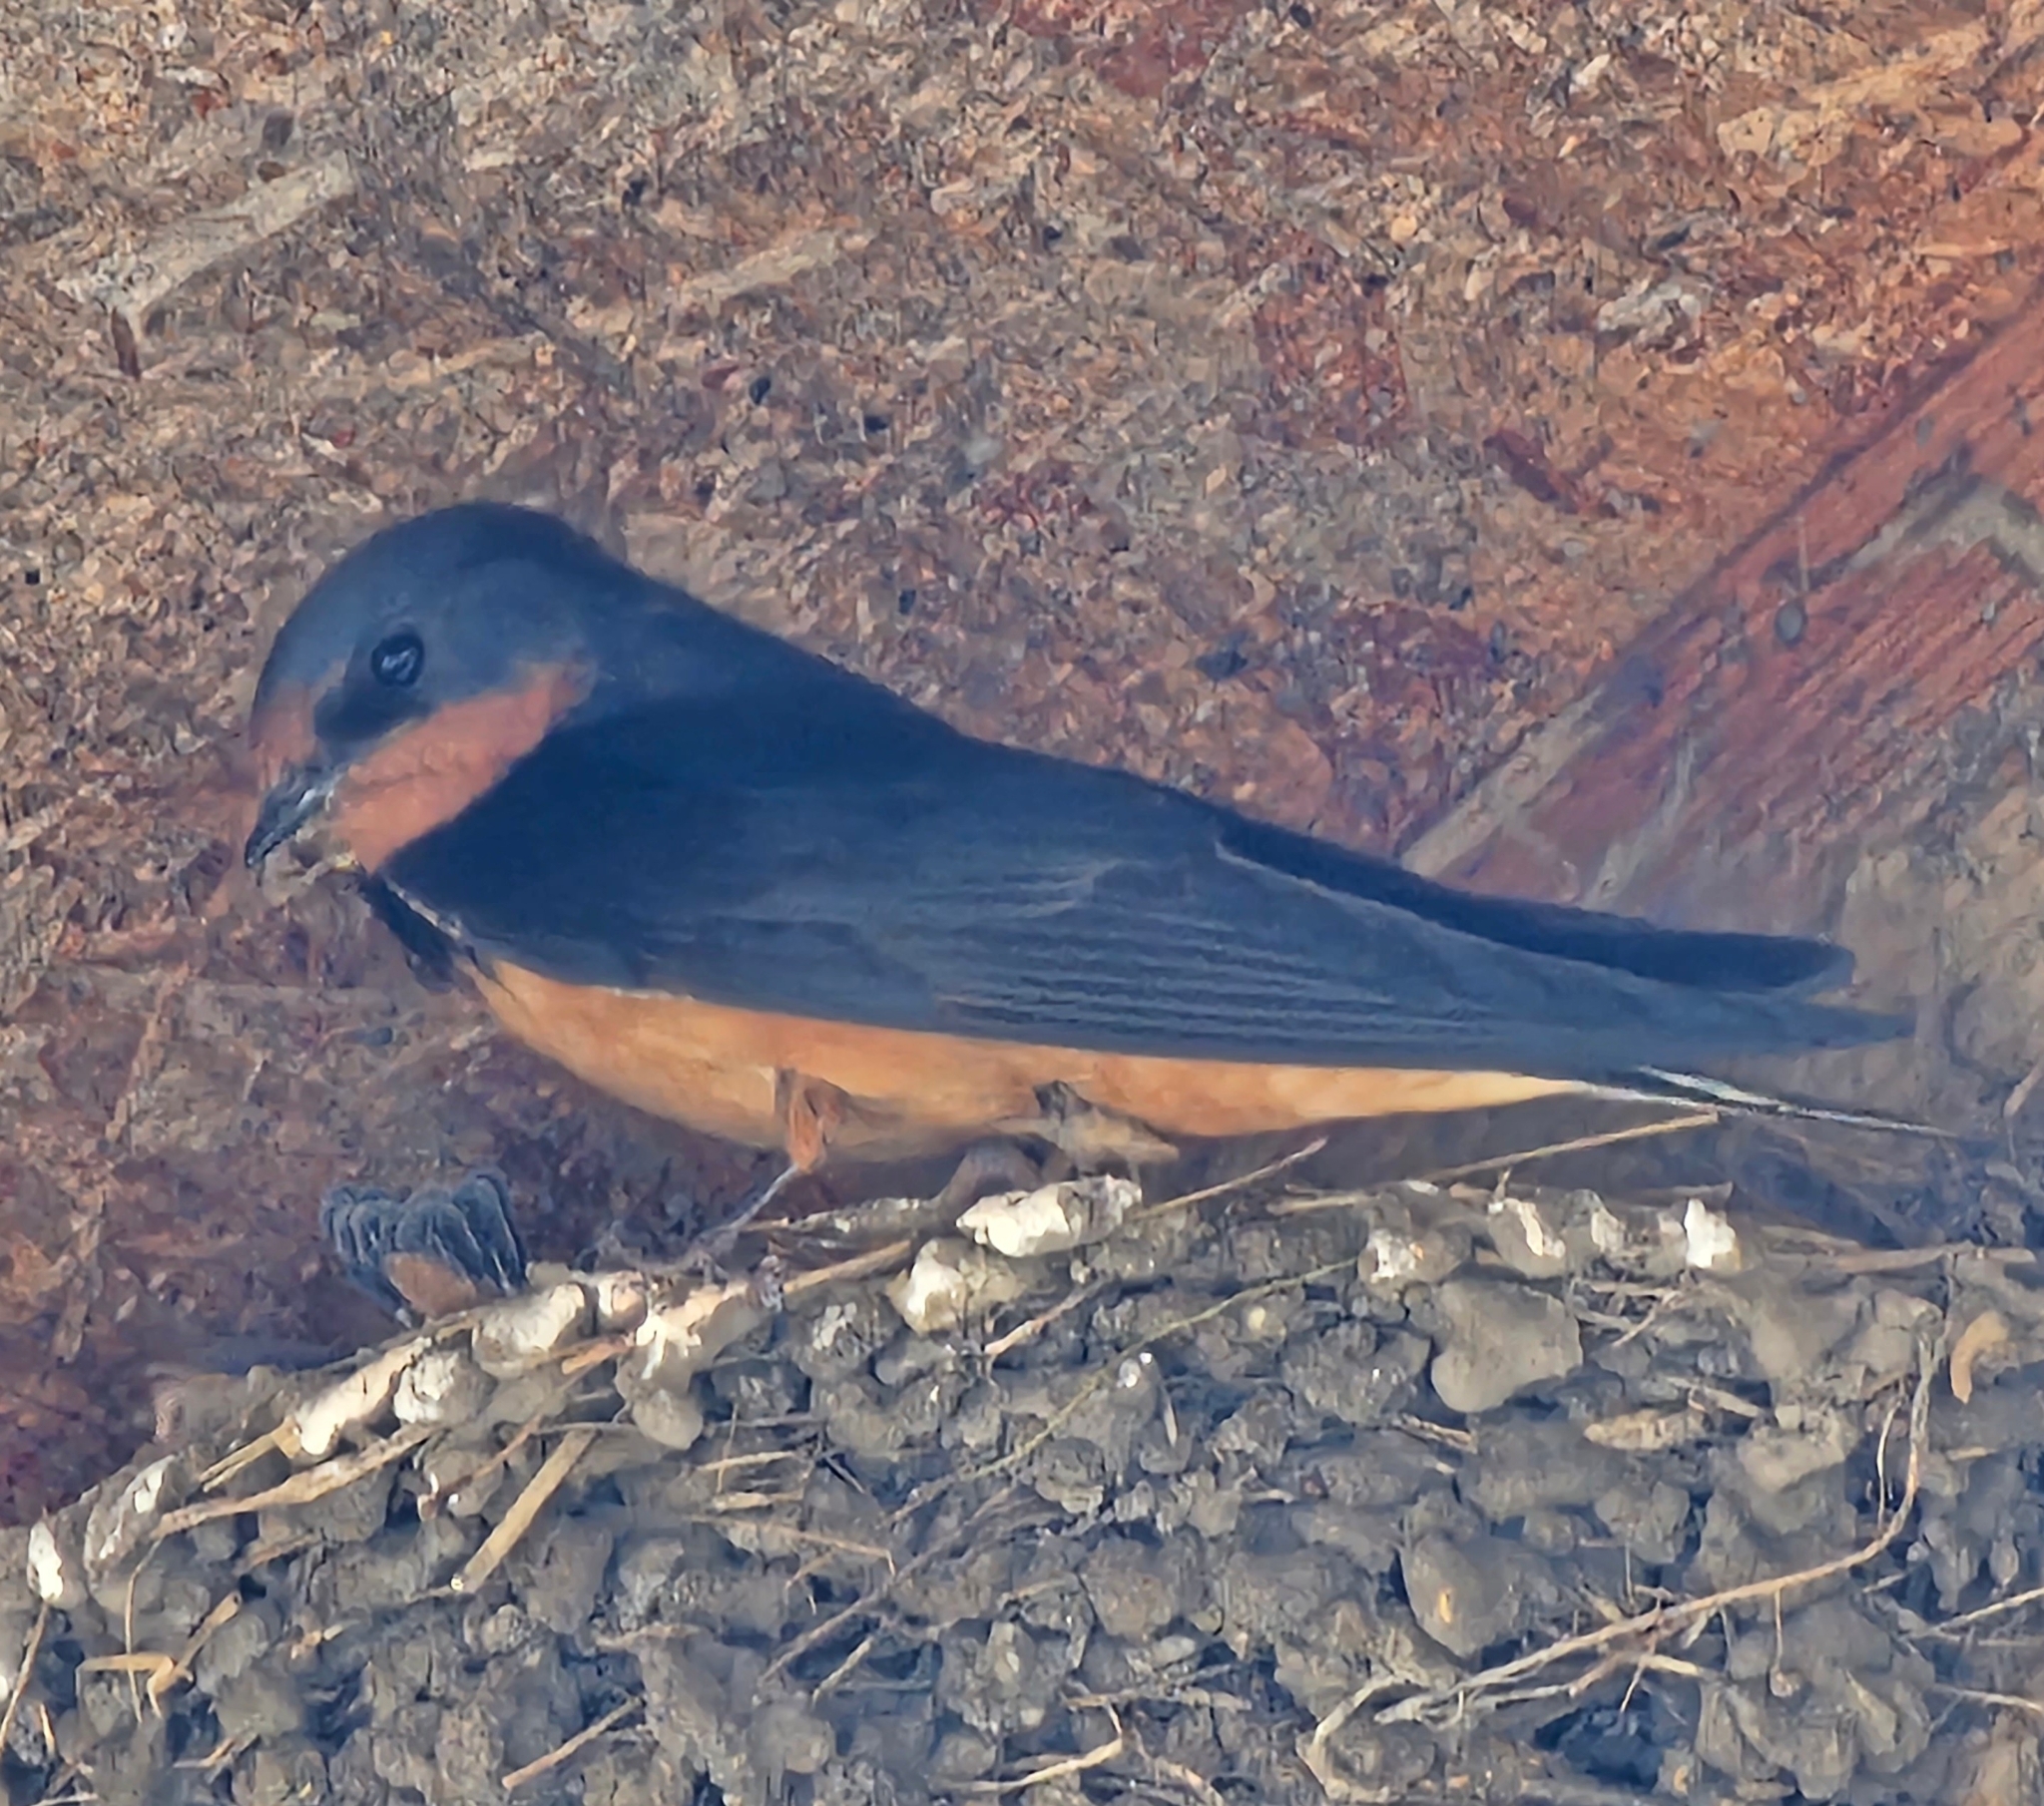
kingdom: Animalia
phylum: Chordata
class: Aves
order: Passeriformes
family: Hirundinidae
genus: Hirundo
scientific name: Hirundo rustica
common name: Barn swallow
